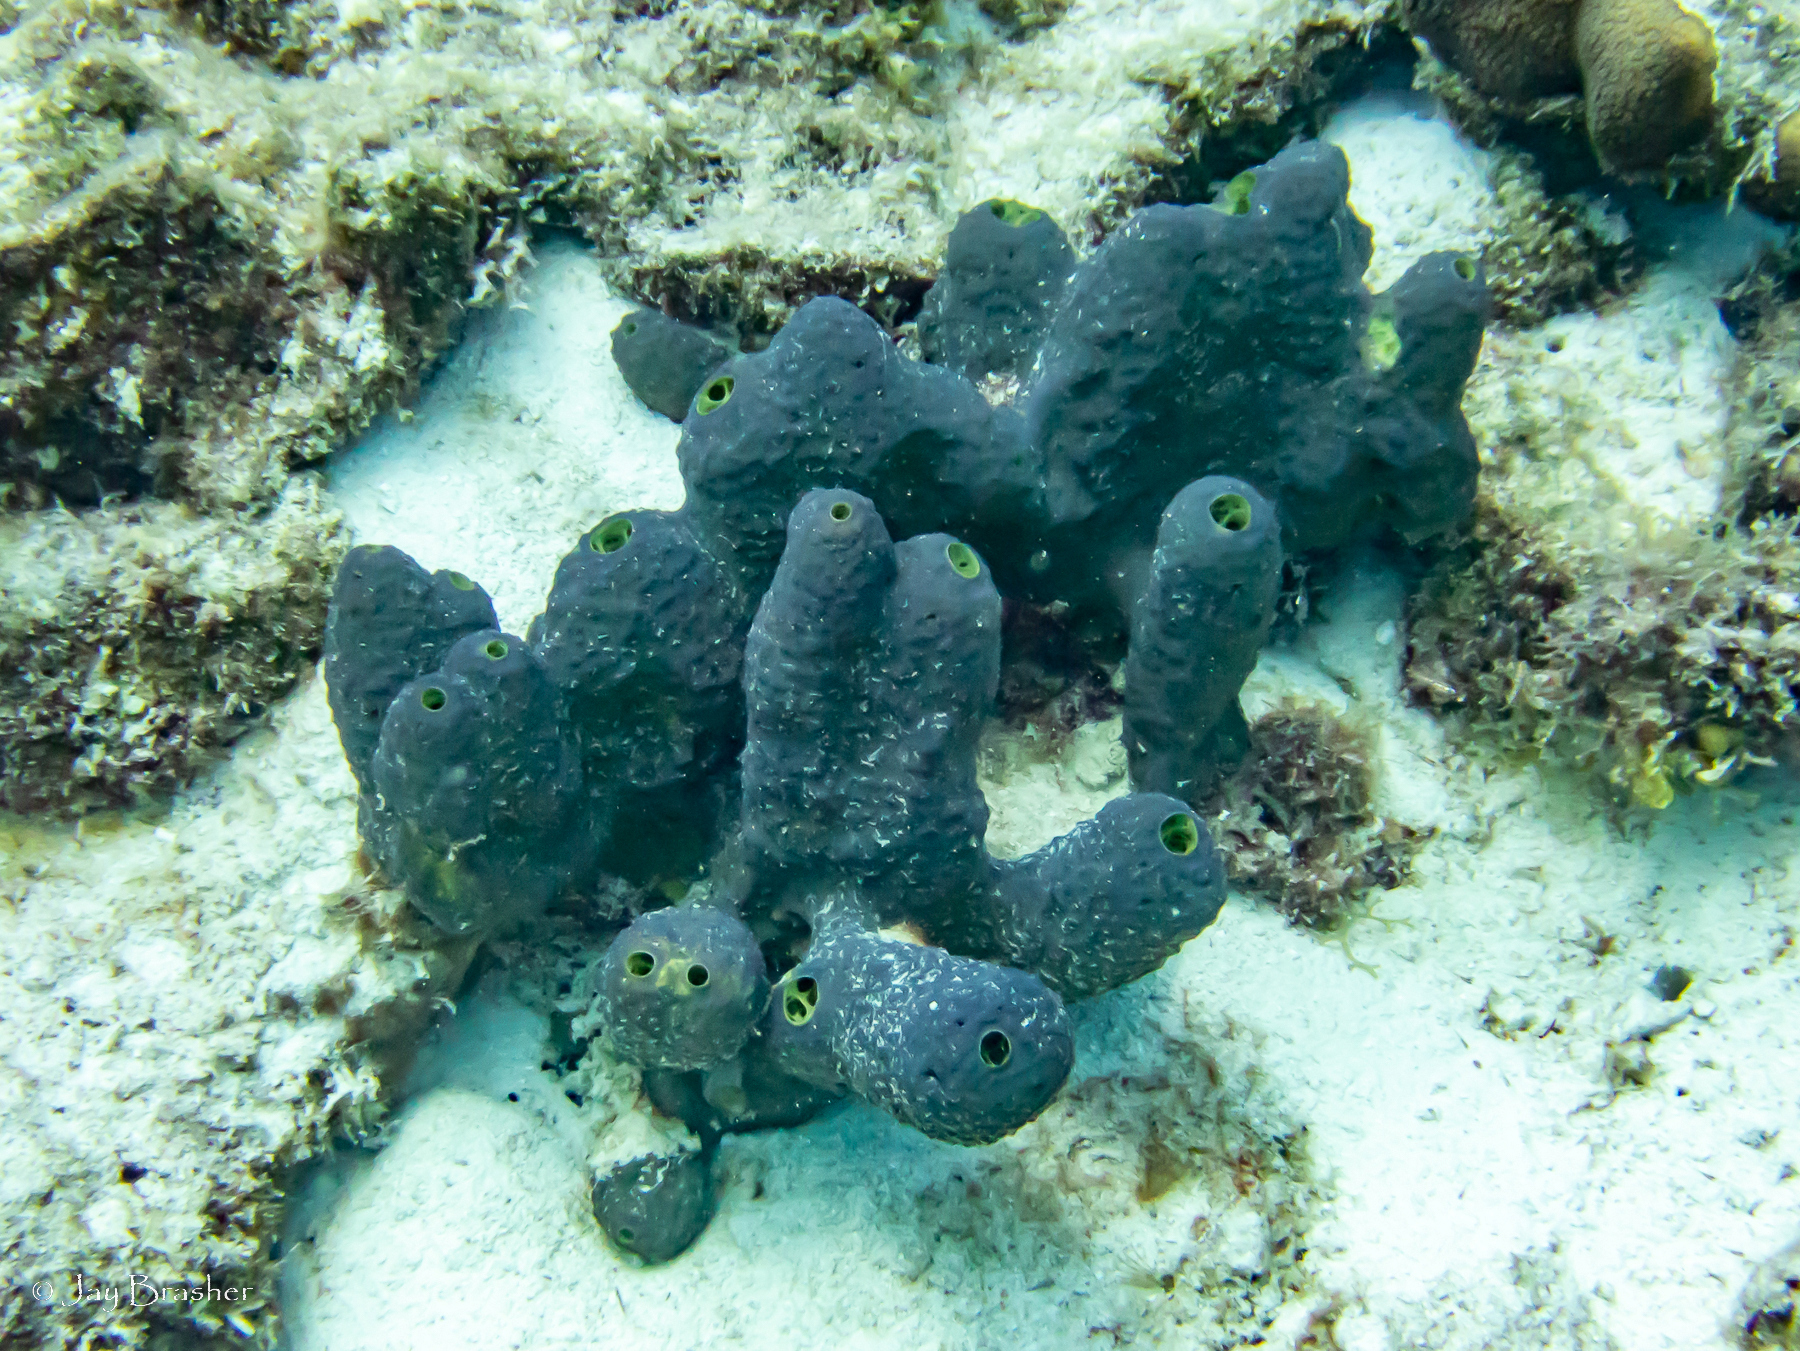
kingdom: Animalia
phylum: Porifera
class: Demospongiae
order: Verongiida
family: Aplysinidae
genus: Aiolochroia
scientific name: Aiolochroia crassa
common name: Branching tube sponge
